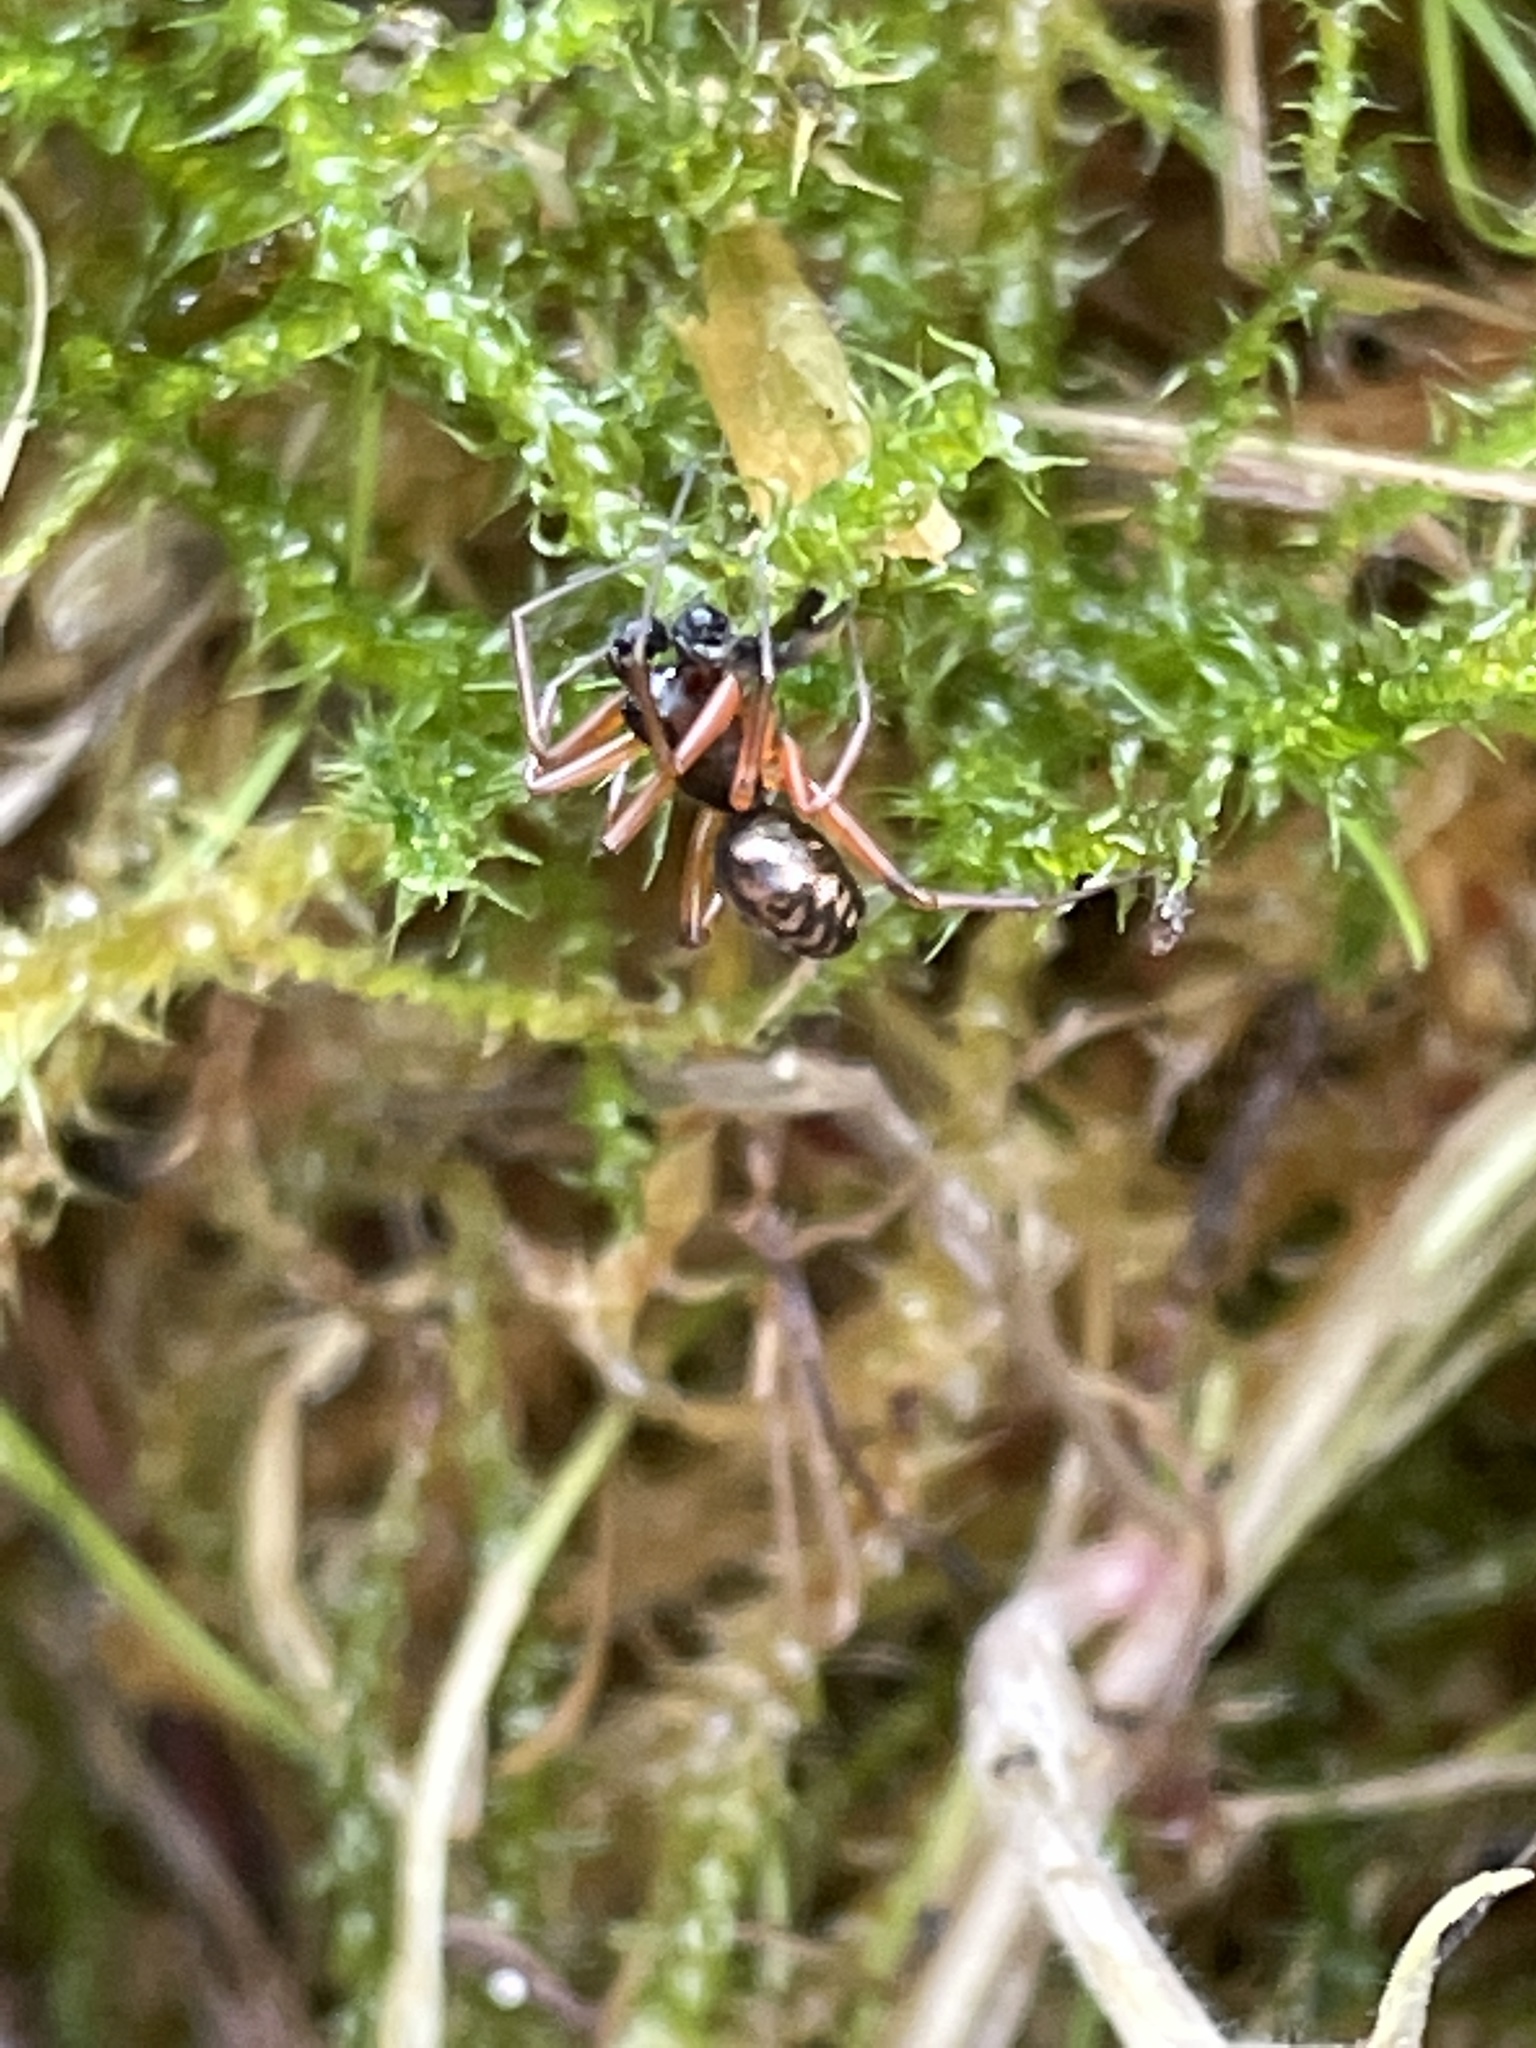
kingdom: Animalia
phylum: Arthropoda
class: Arachnida
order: Araneae
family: Linyphiidae
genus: Neriene
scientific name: Neriene clathrata
